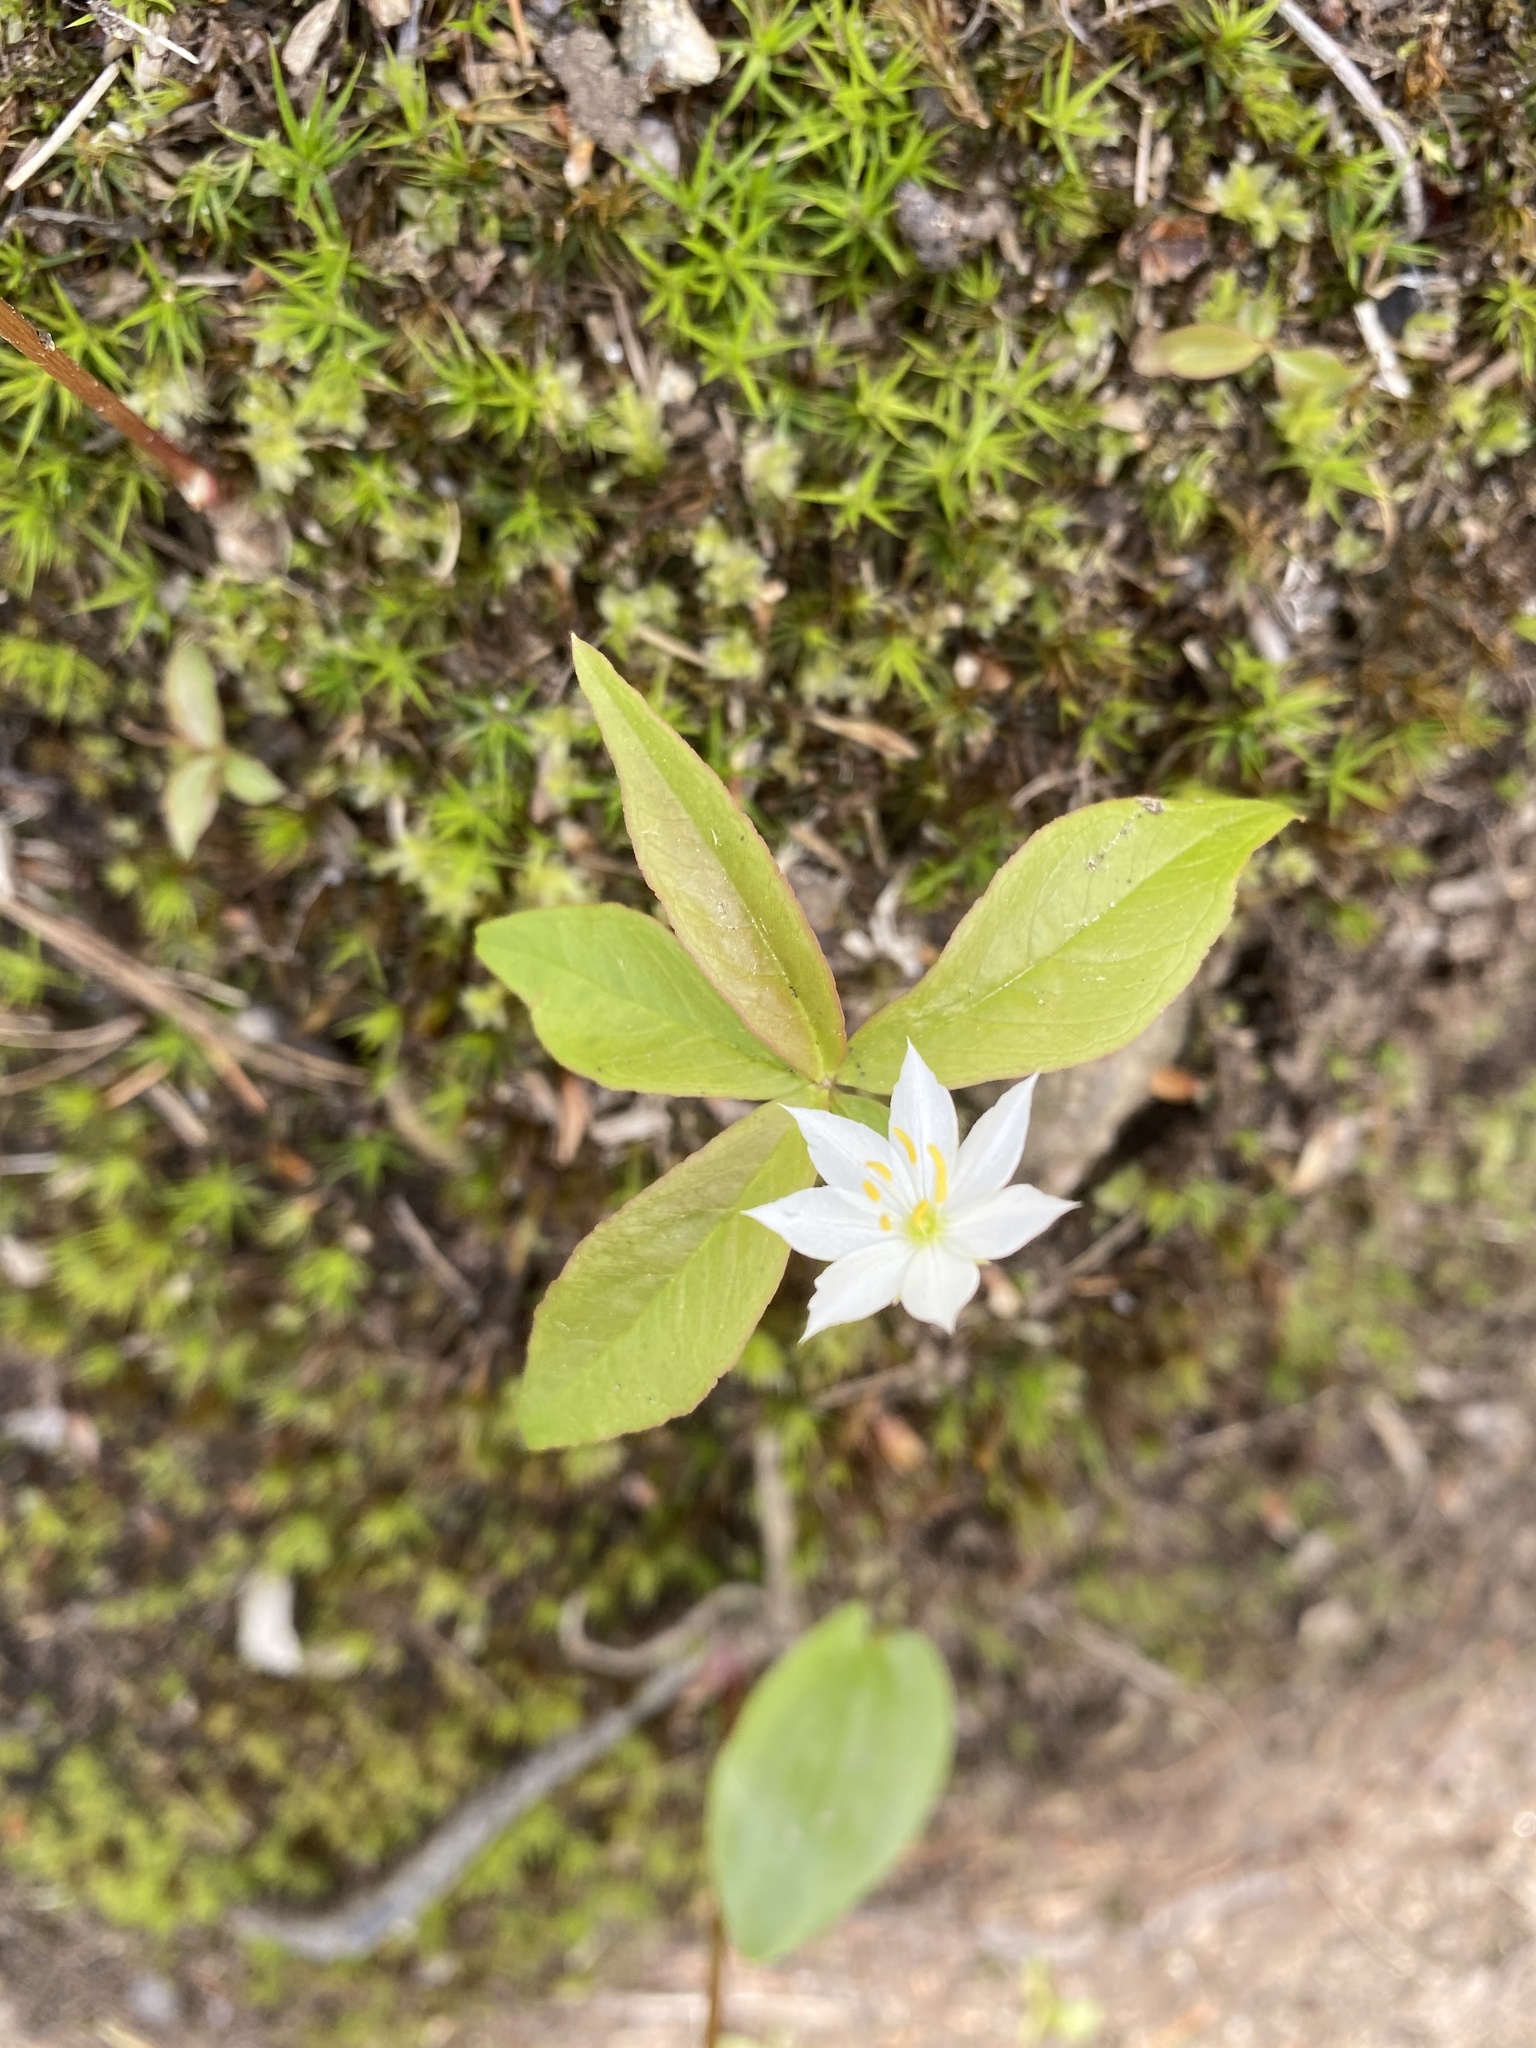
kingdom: Plantae
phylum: Tracheophyta
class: Magnoliopsida
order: Ericales
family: Primulaceae
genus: Lysimachia
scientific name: Lysimachia borealis
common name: American starflower
